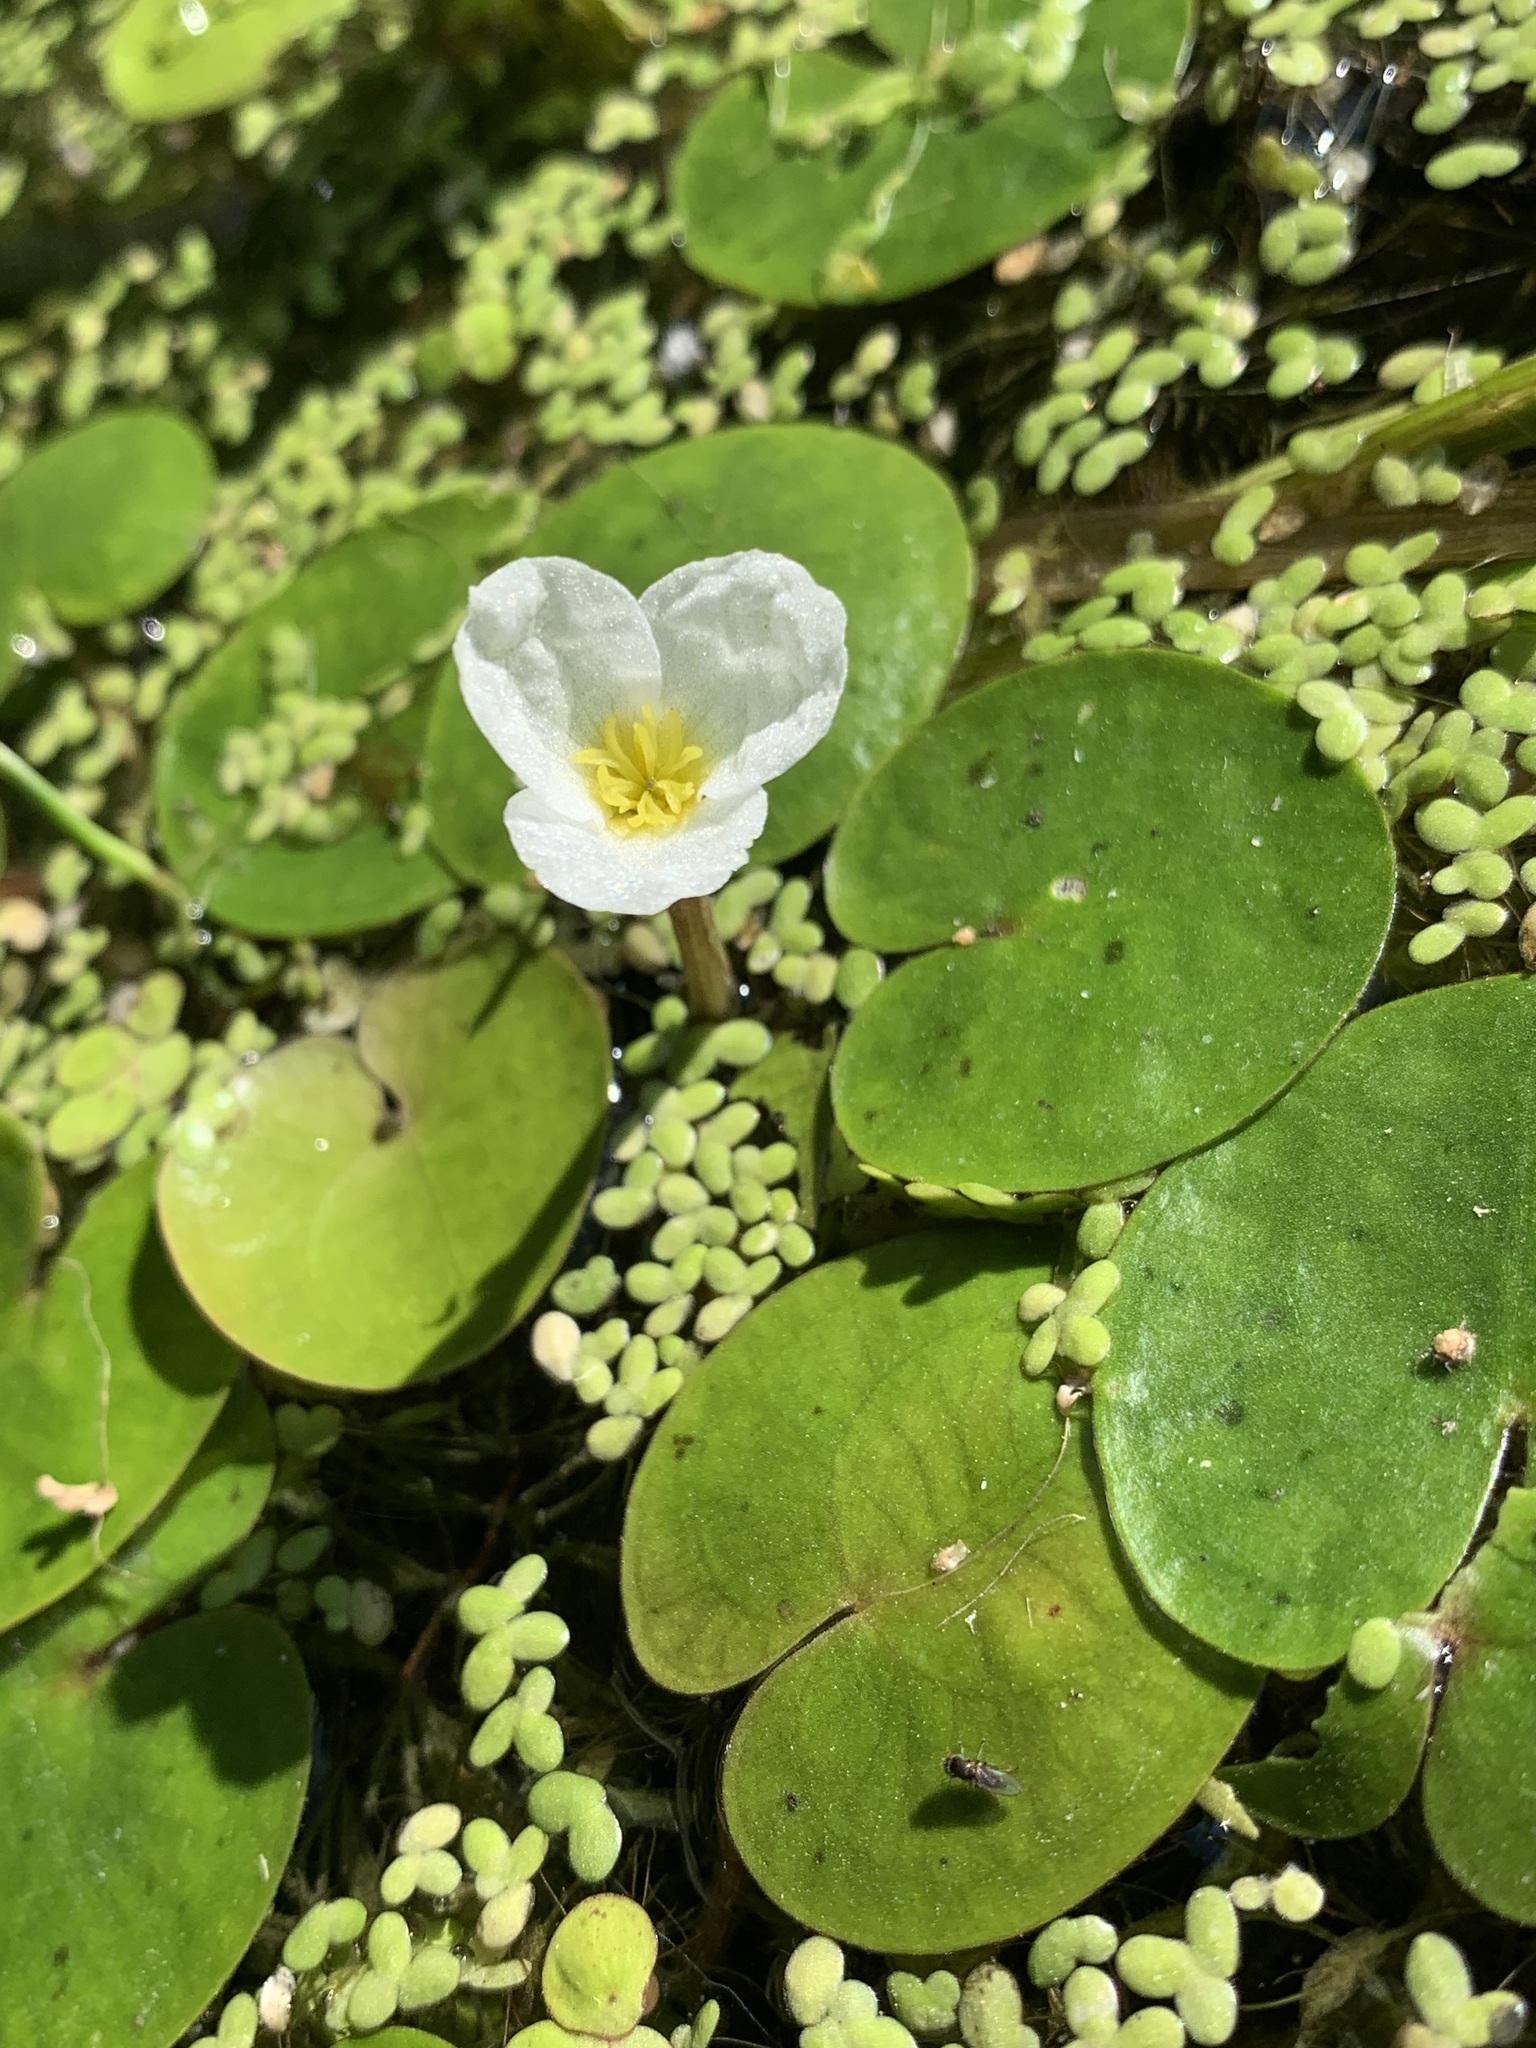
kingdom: Plantae
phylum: Tracheophyta
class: Liliopsida
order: Alismatales
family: Hydrocharitaceae
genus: Hydrocharis
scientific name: Hydrocharis morsus-ranae
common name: Frogbit
